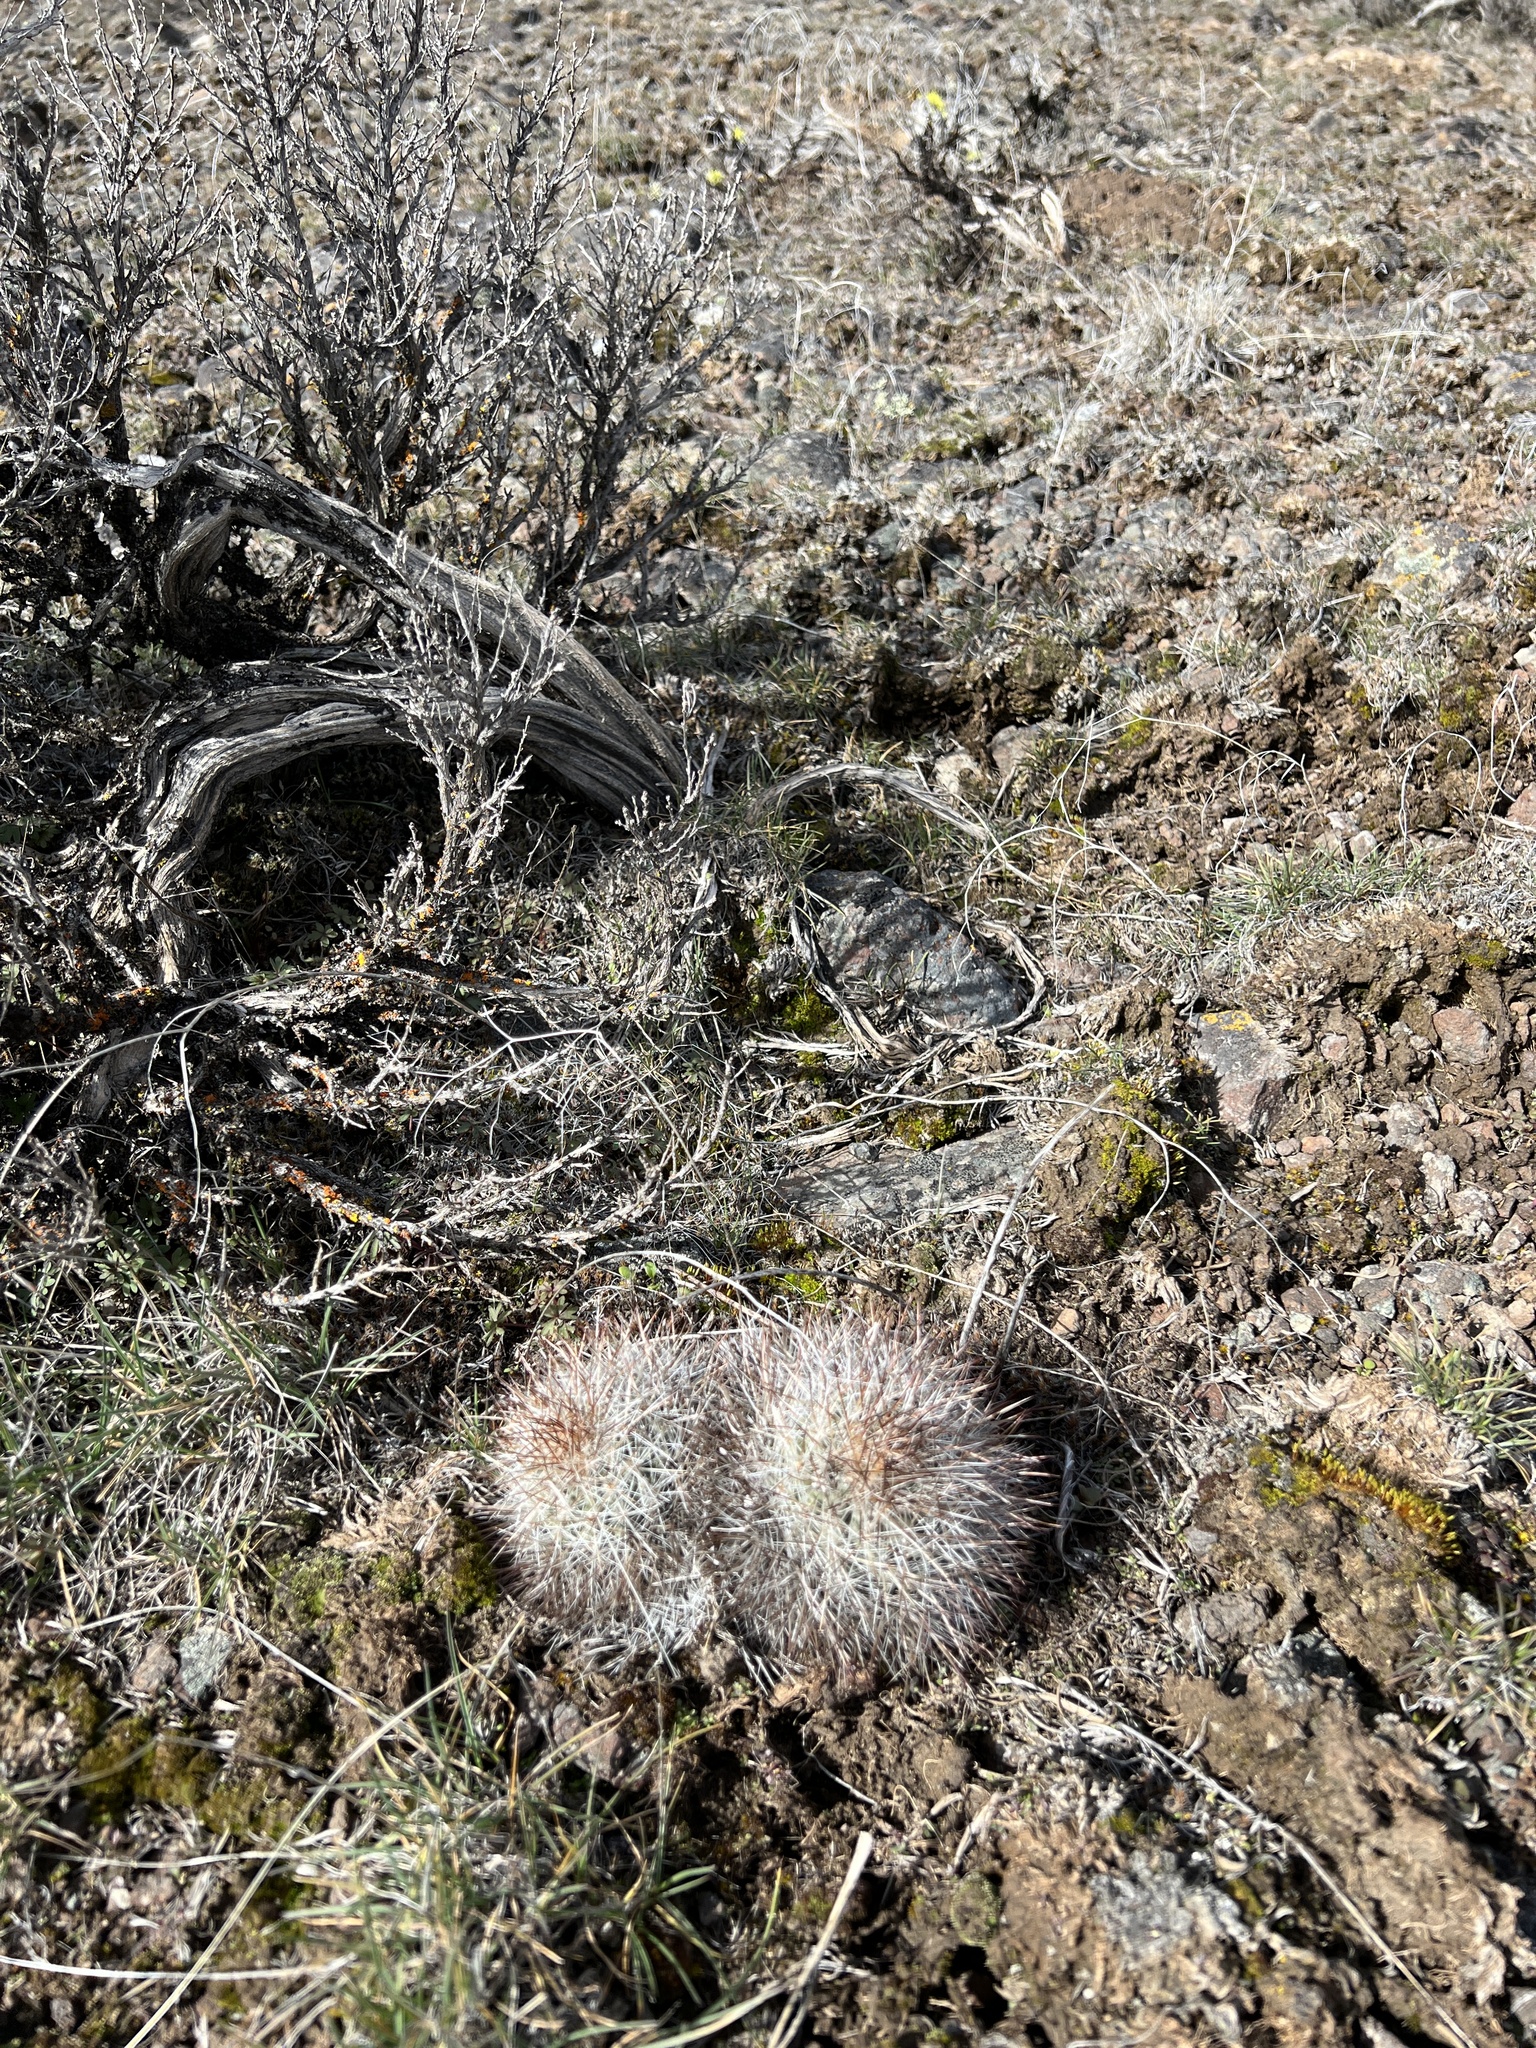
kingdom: Plantae
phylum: Tracheophyta
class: Magnoliopsida
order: Caryophyllales
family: Cactaceae
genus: Pediocactus
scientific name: Pediocactus nigrispinus
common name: Simpson's hedgehog cactus
